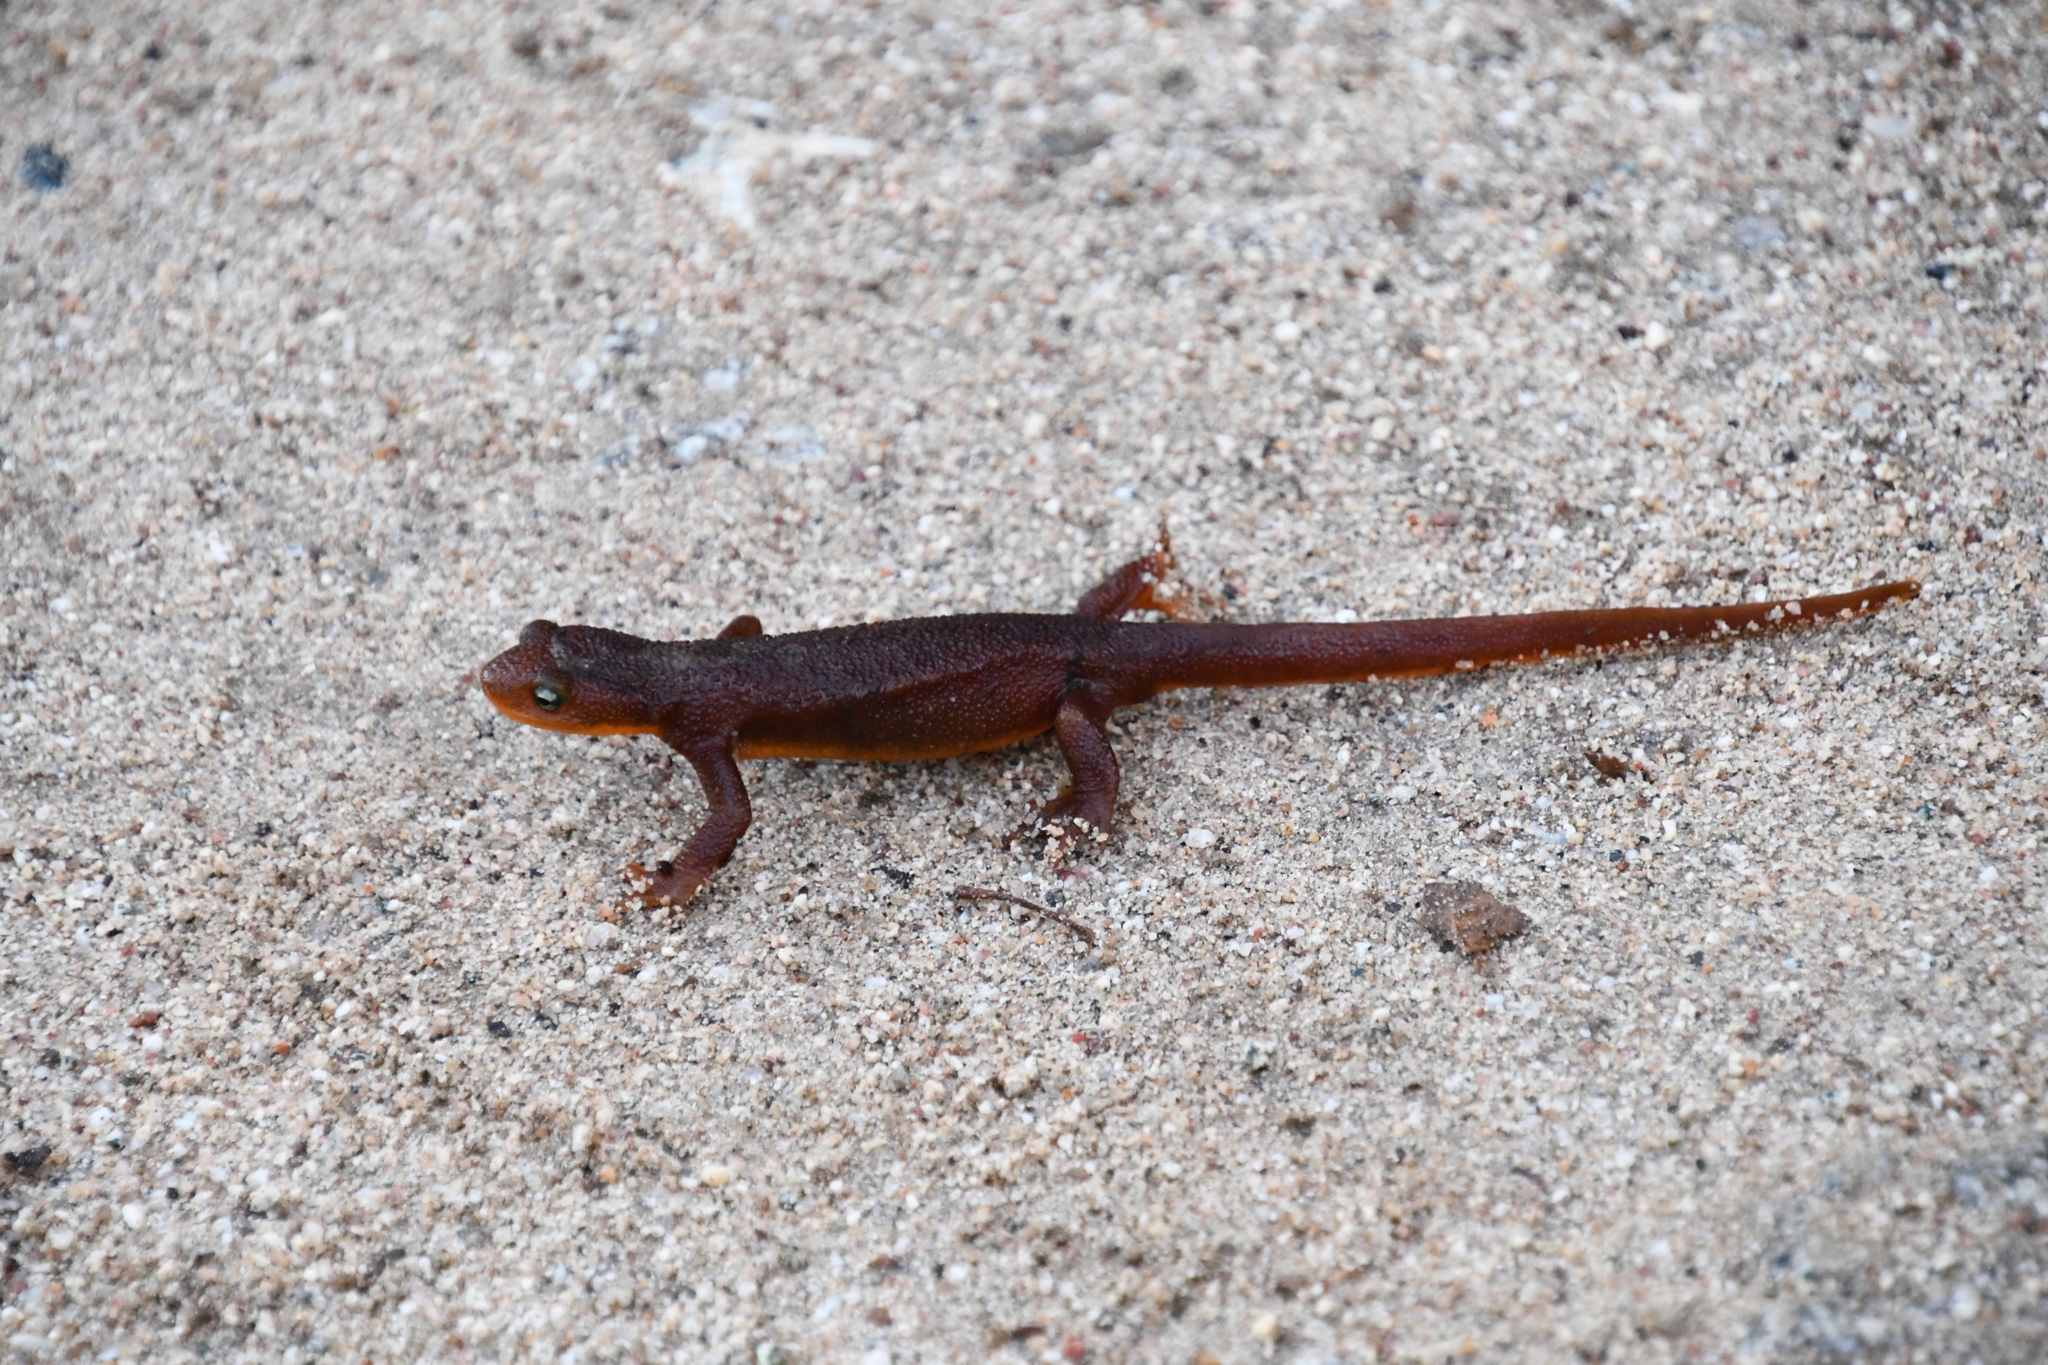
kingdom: Animalia
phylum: Chordata
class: Amphibia
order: Caudata
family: Salamandridae
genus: Taricha
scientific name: Taricha torosa
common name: California newt
